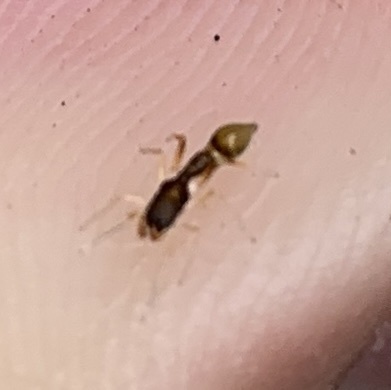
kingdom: Animalia
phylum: Arthropoda
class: Arachnida
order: Araneae
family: Salticidae
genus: Synemosyna
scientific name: Synemosyna formica
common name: Slender ant-mimic jumping spider
